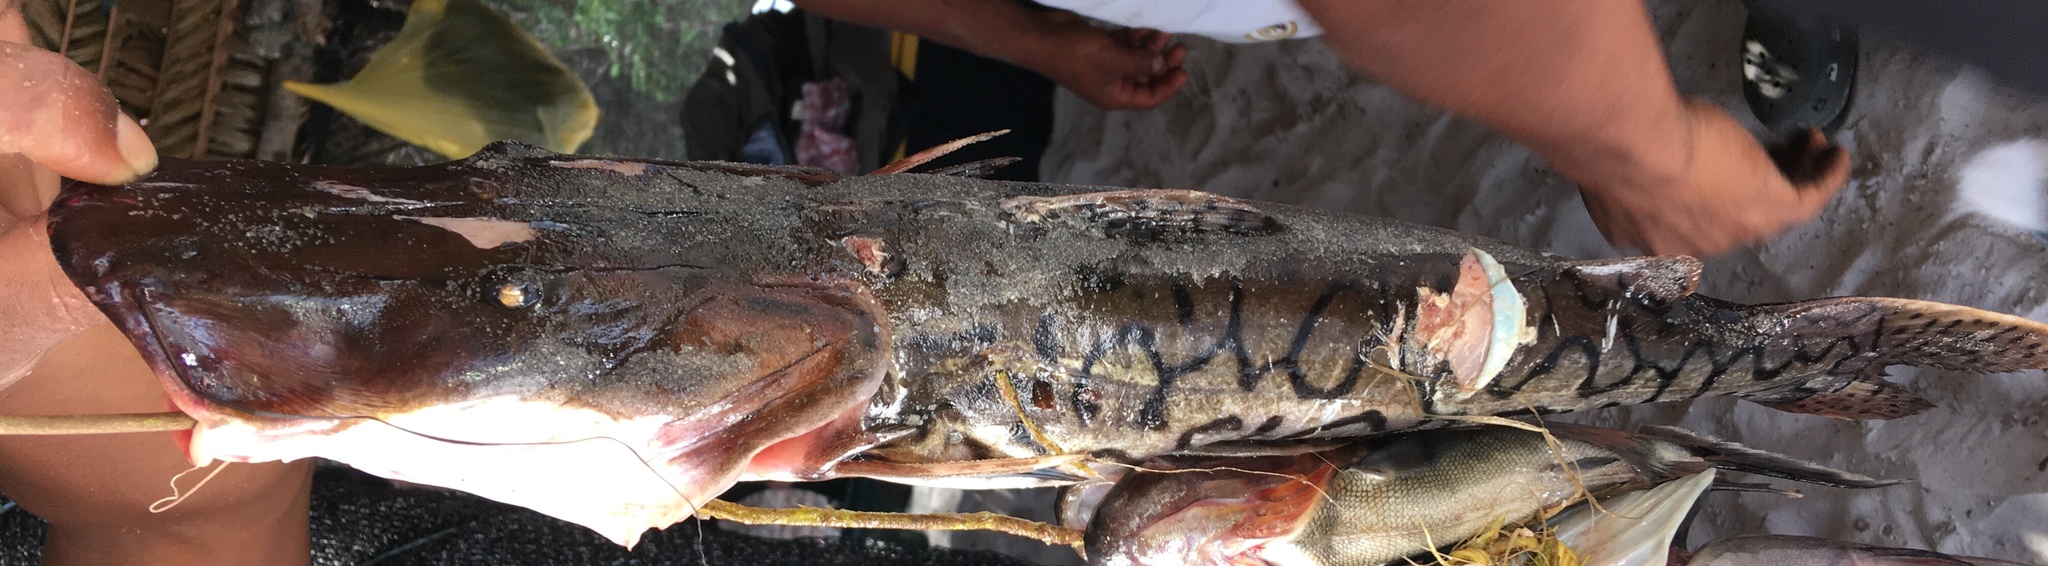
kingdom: Animalia
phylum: Chordata
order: Siluriformes
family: Pimelodidae
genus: Pseudoplatystoma
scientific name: Pseudoplatystoma orinocoense
